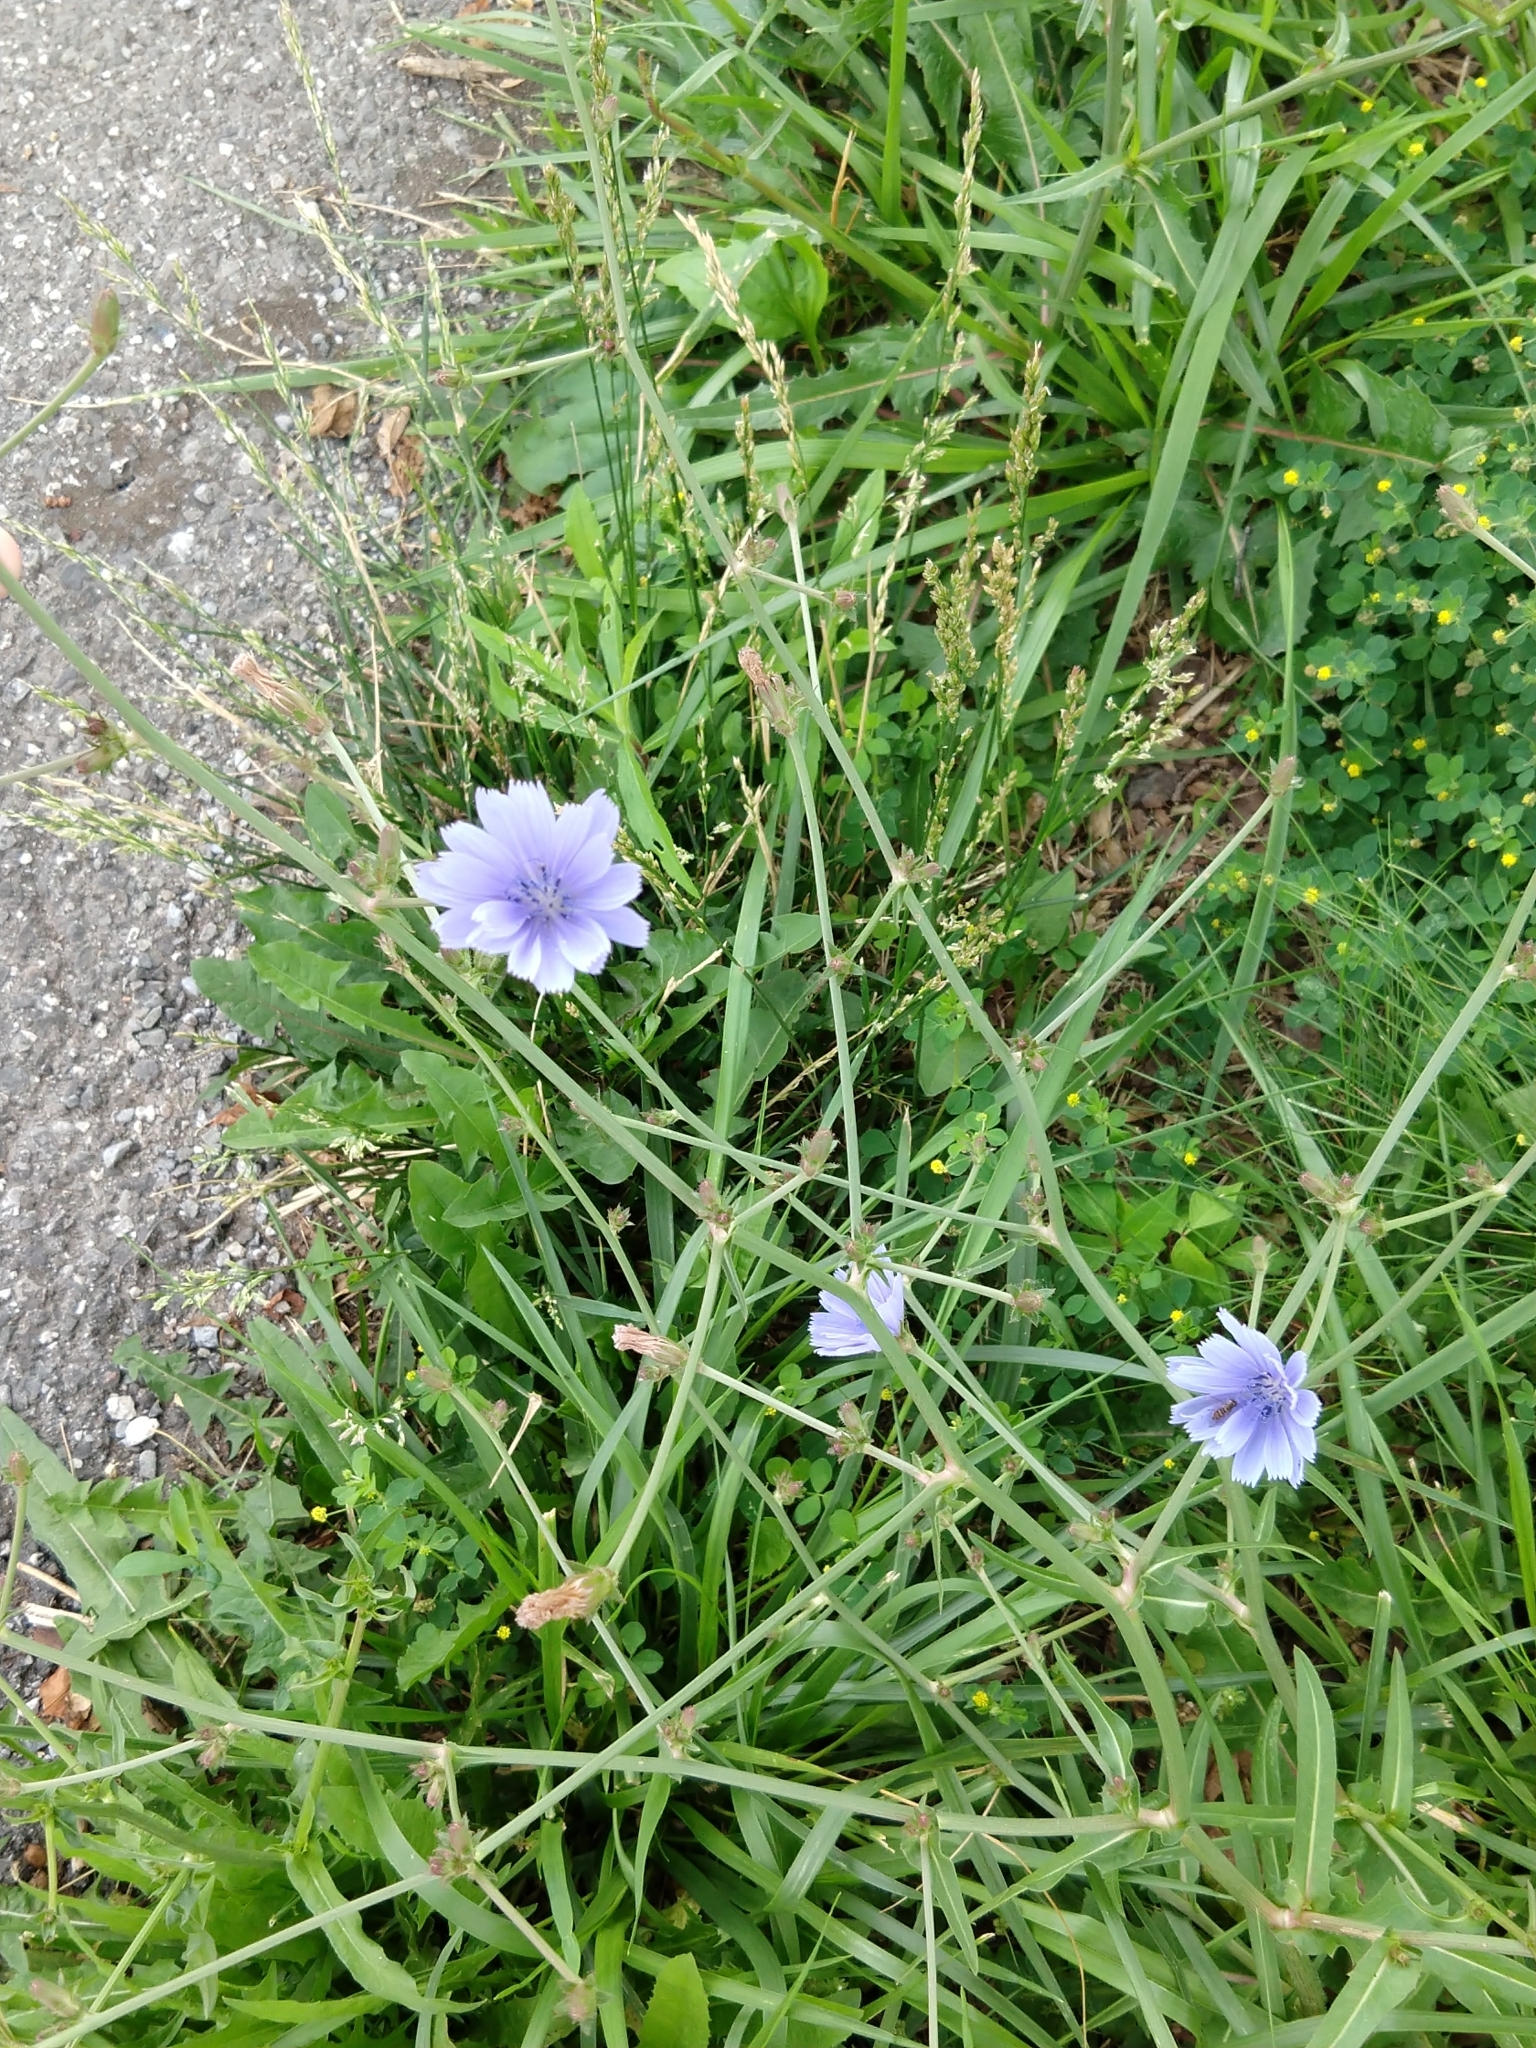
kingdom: Plantae
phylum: Tracheophyta
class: Magnoliopsida
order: Asterales
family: Asteraceae
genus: Cichorium
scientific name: Cichorium intybus
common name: Chicory
